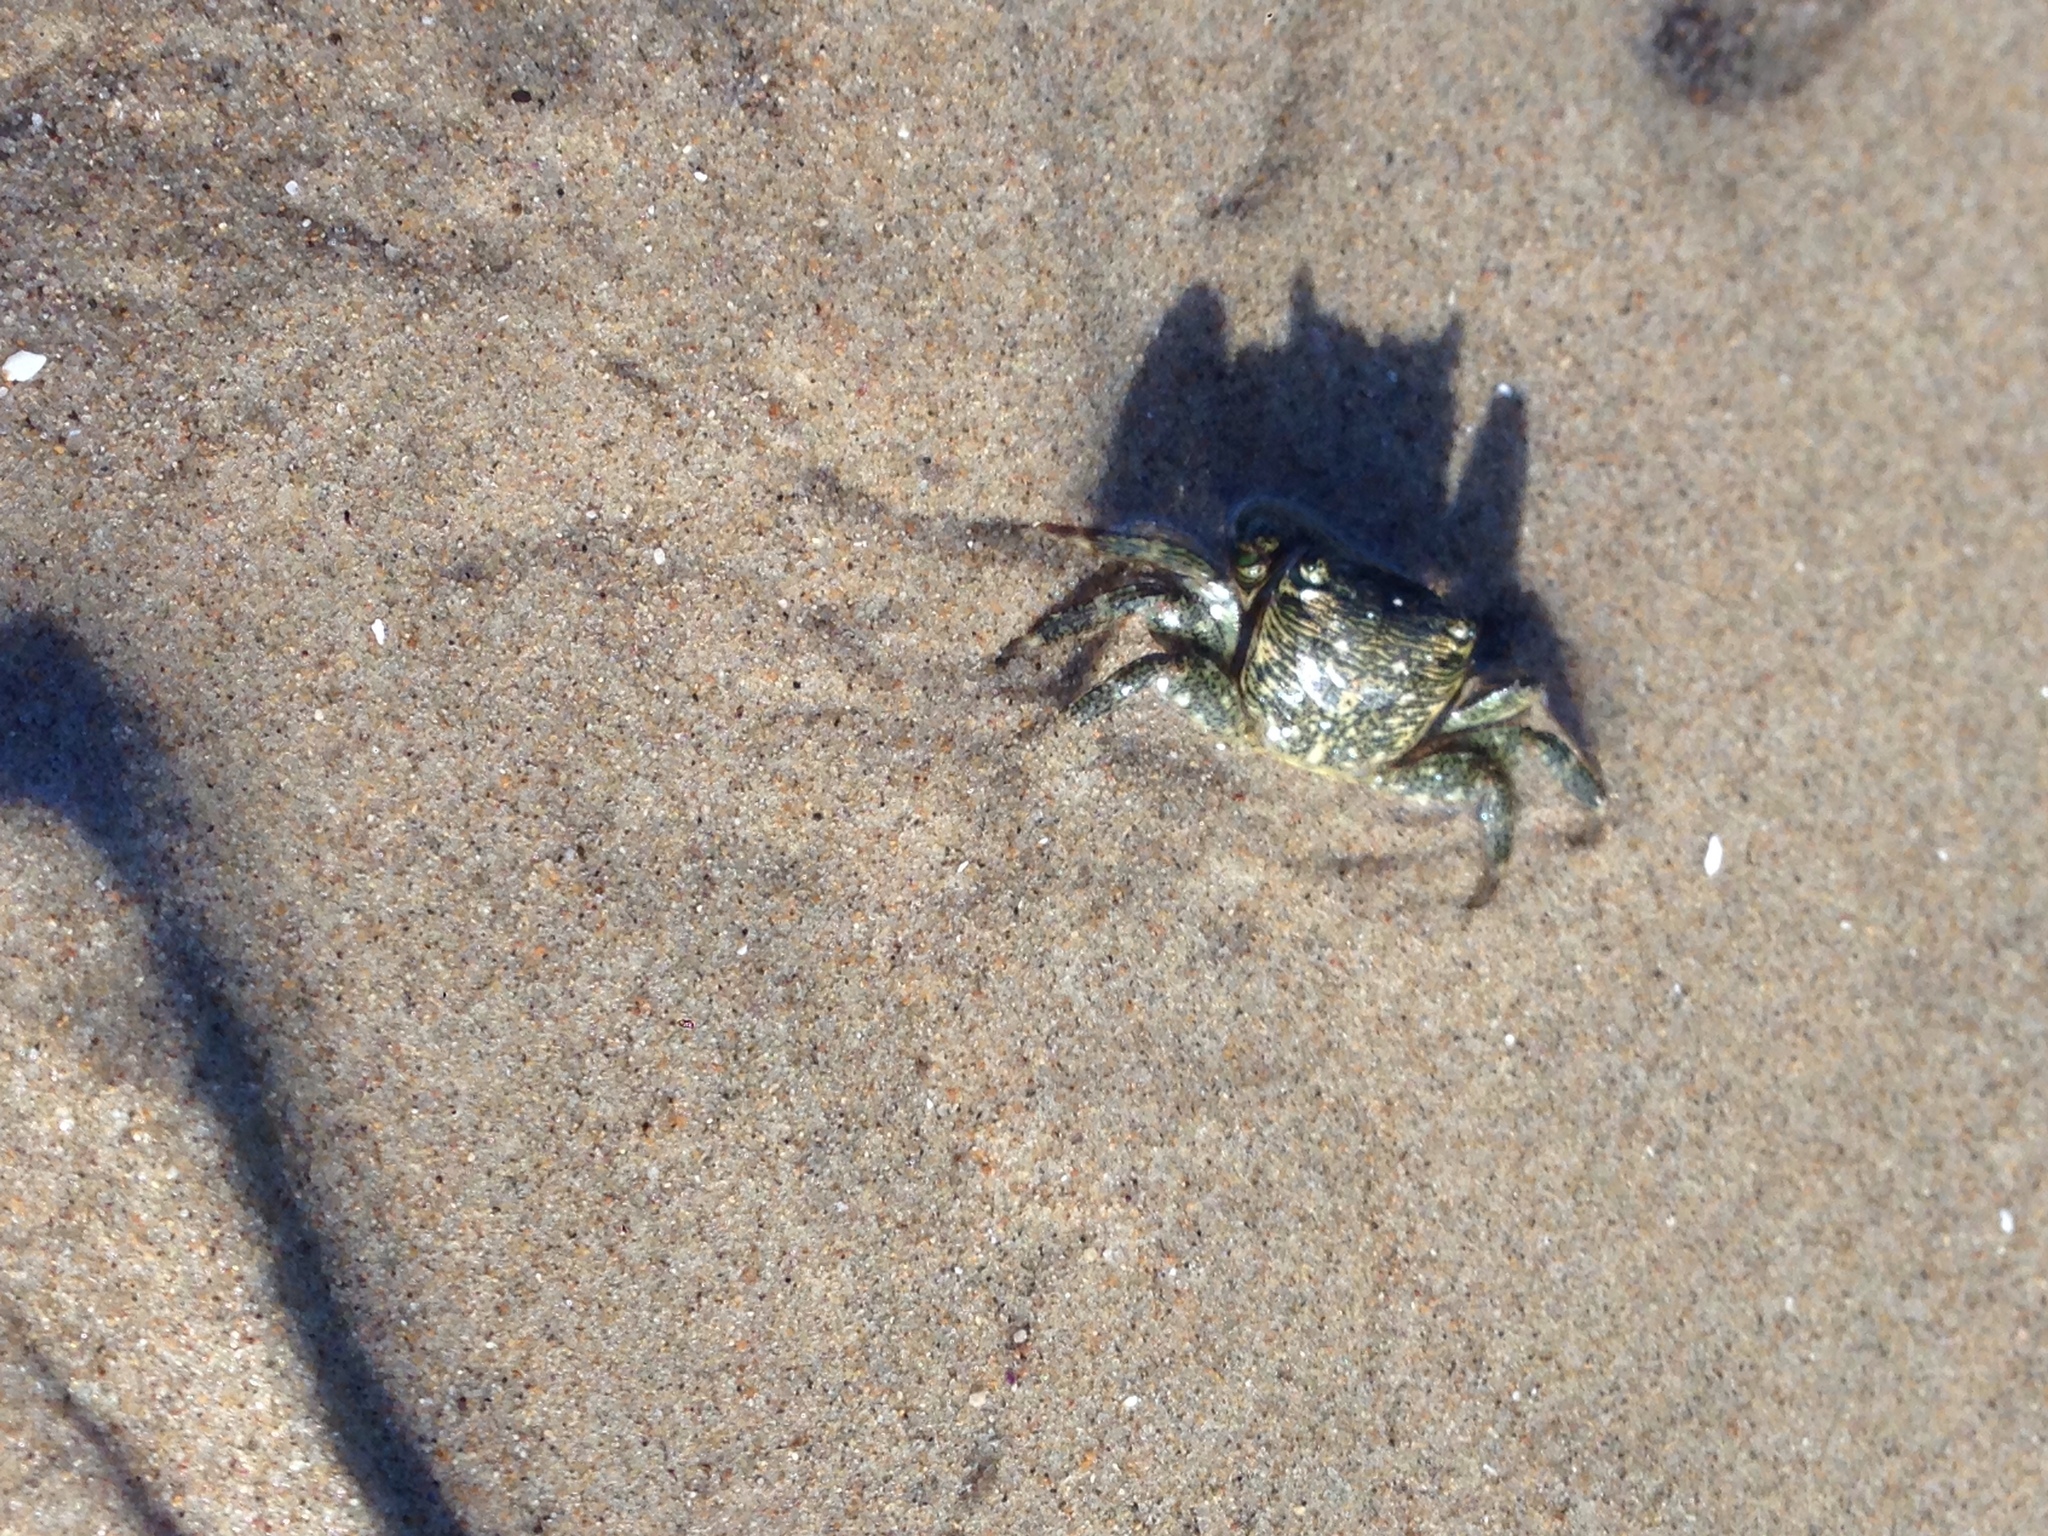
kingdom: Animalia
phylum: Arthropoda
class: Malacostraca
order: Decapoda
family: Grapsidae
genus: Pachygrapsus
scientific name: Pachygrapsus crassipes
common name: Striped shore crab
